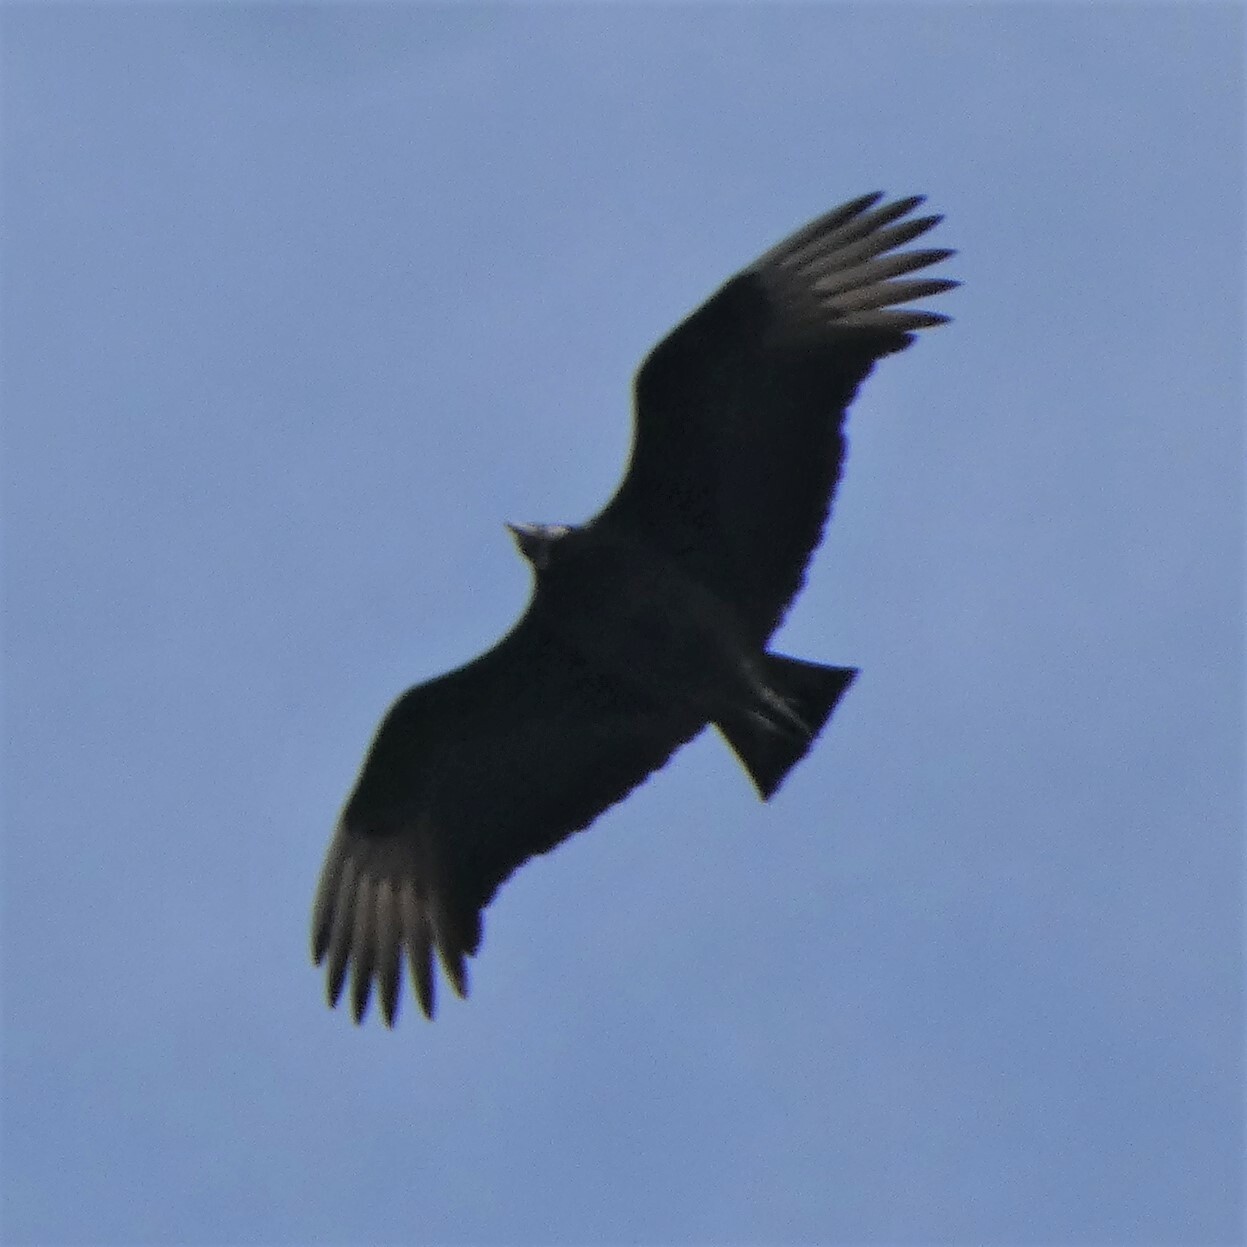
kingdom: Animalia
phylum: Chordata
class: Aves
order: Accipitriformes
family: Cathartidae
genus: Coragyps
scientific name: Coragyps atratus
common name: Black vulture
